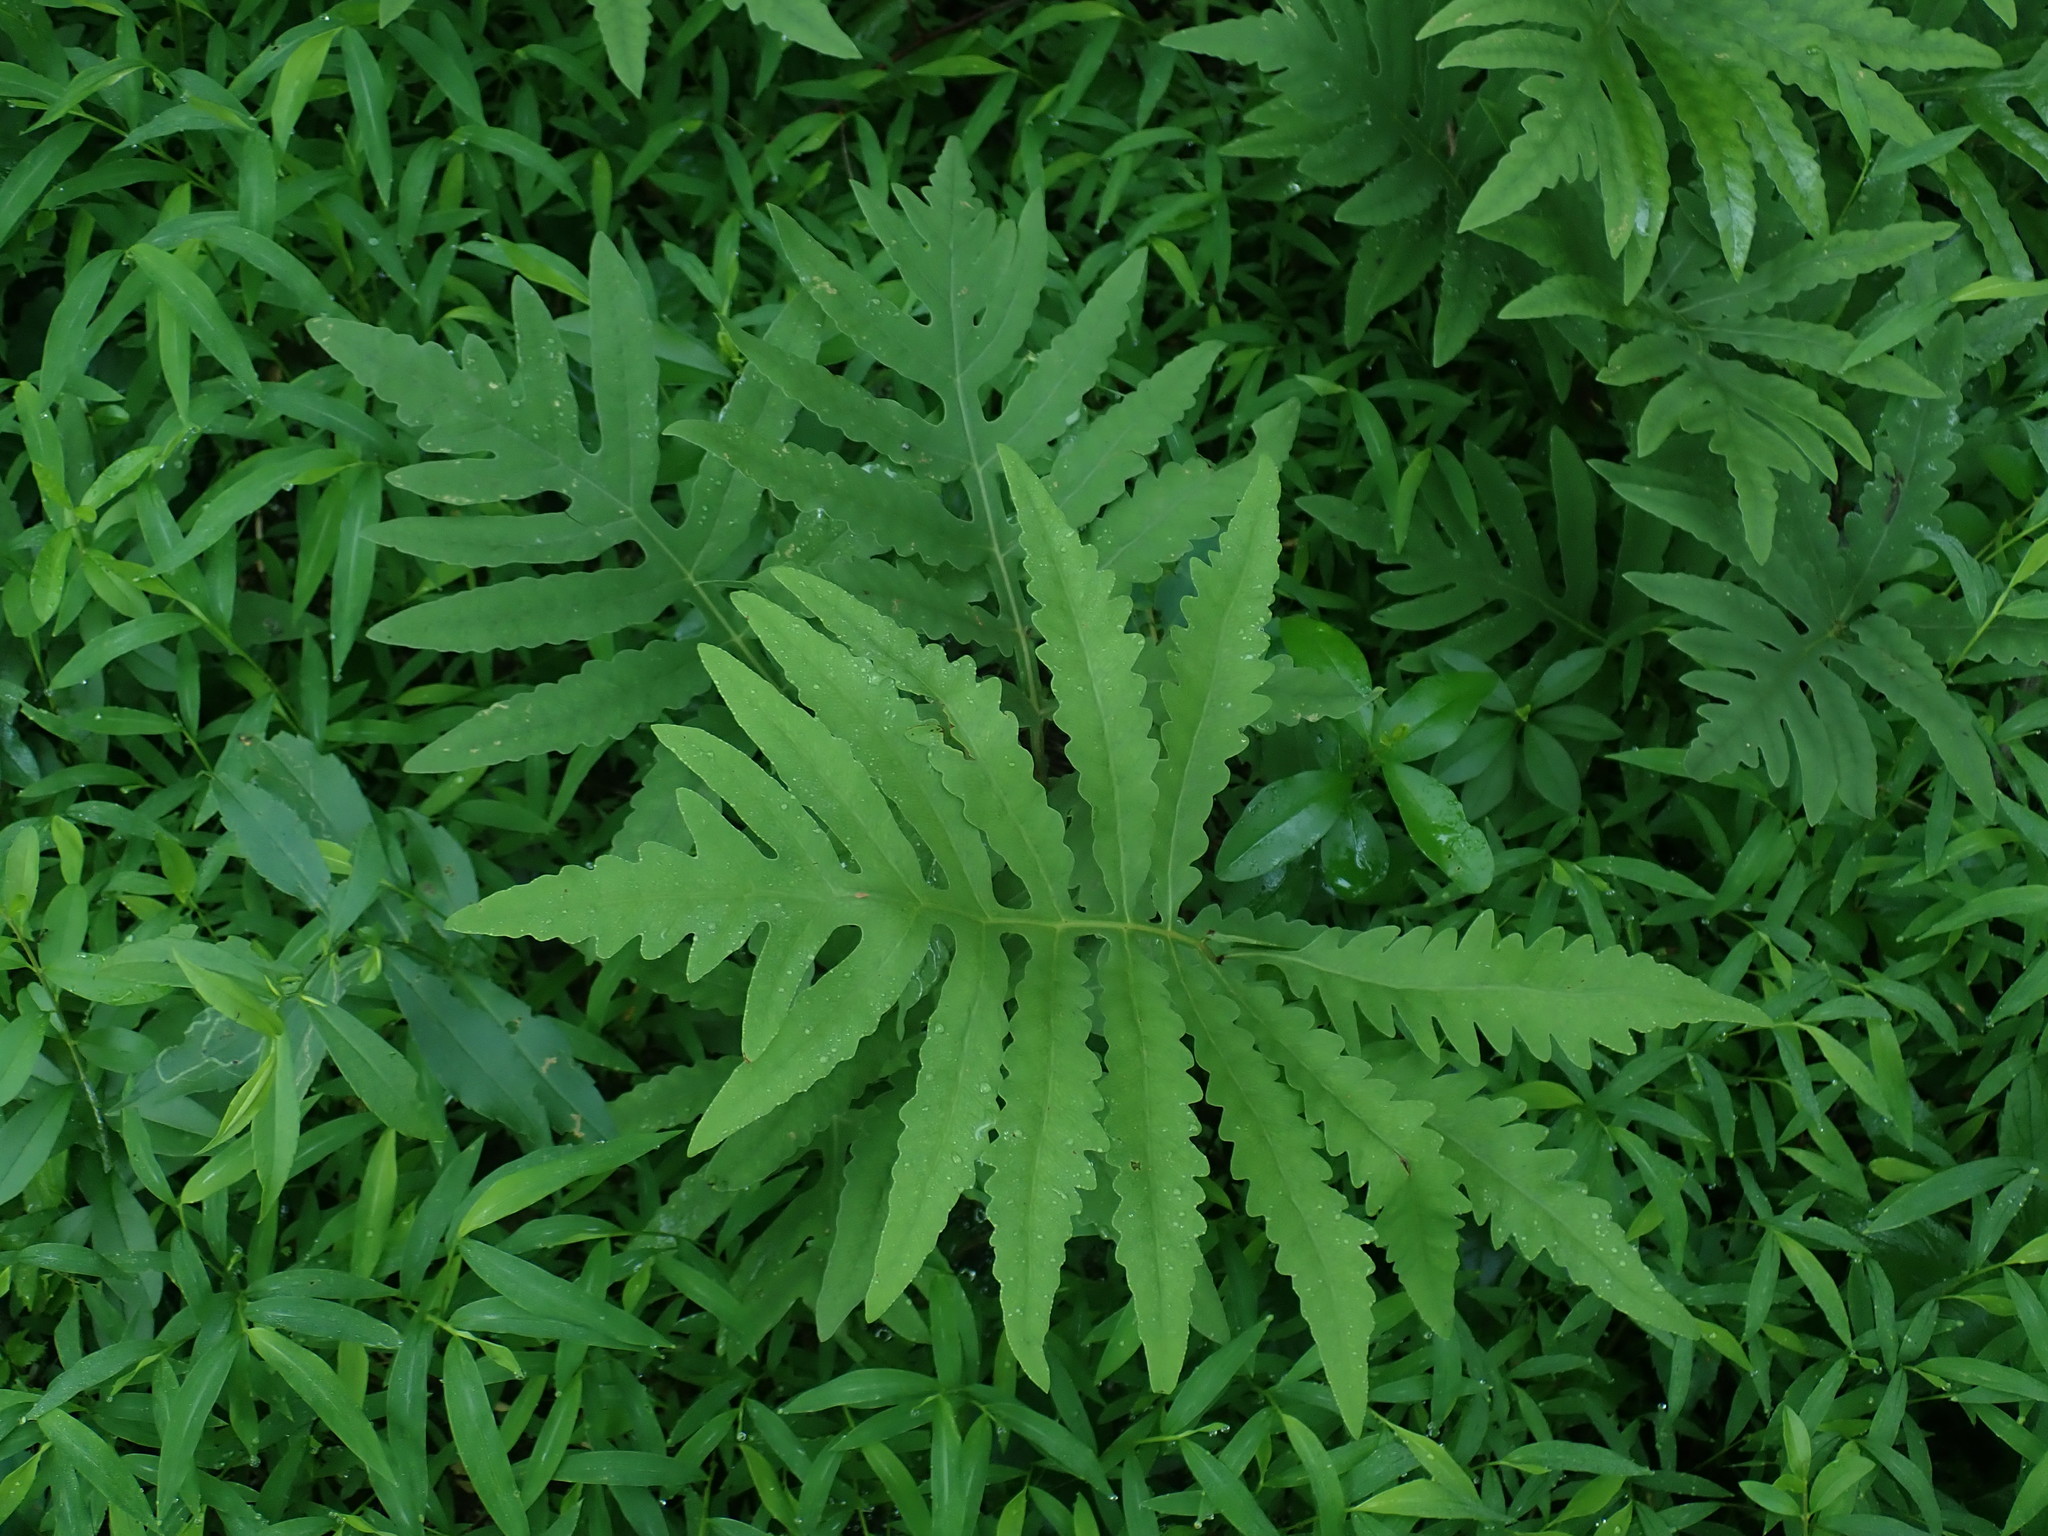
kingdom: Plantae
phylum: Tracheophyta
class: Polypodiopsida
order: Polypodiales
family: Onocleaceae
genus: Onoclea
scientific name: Onoclea sensibilis
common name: Sensitive fern
